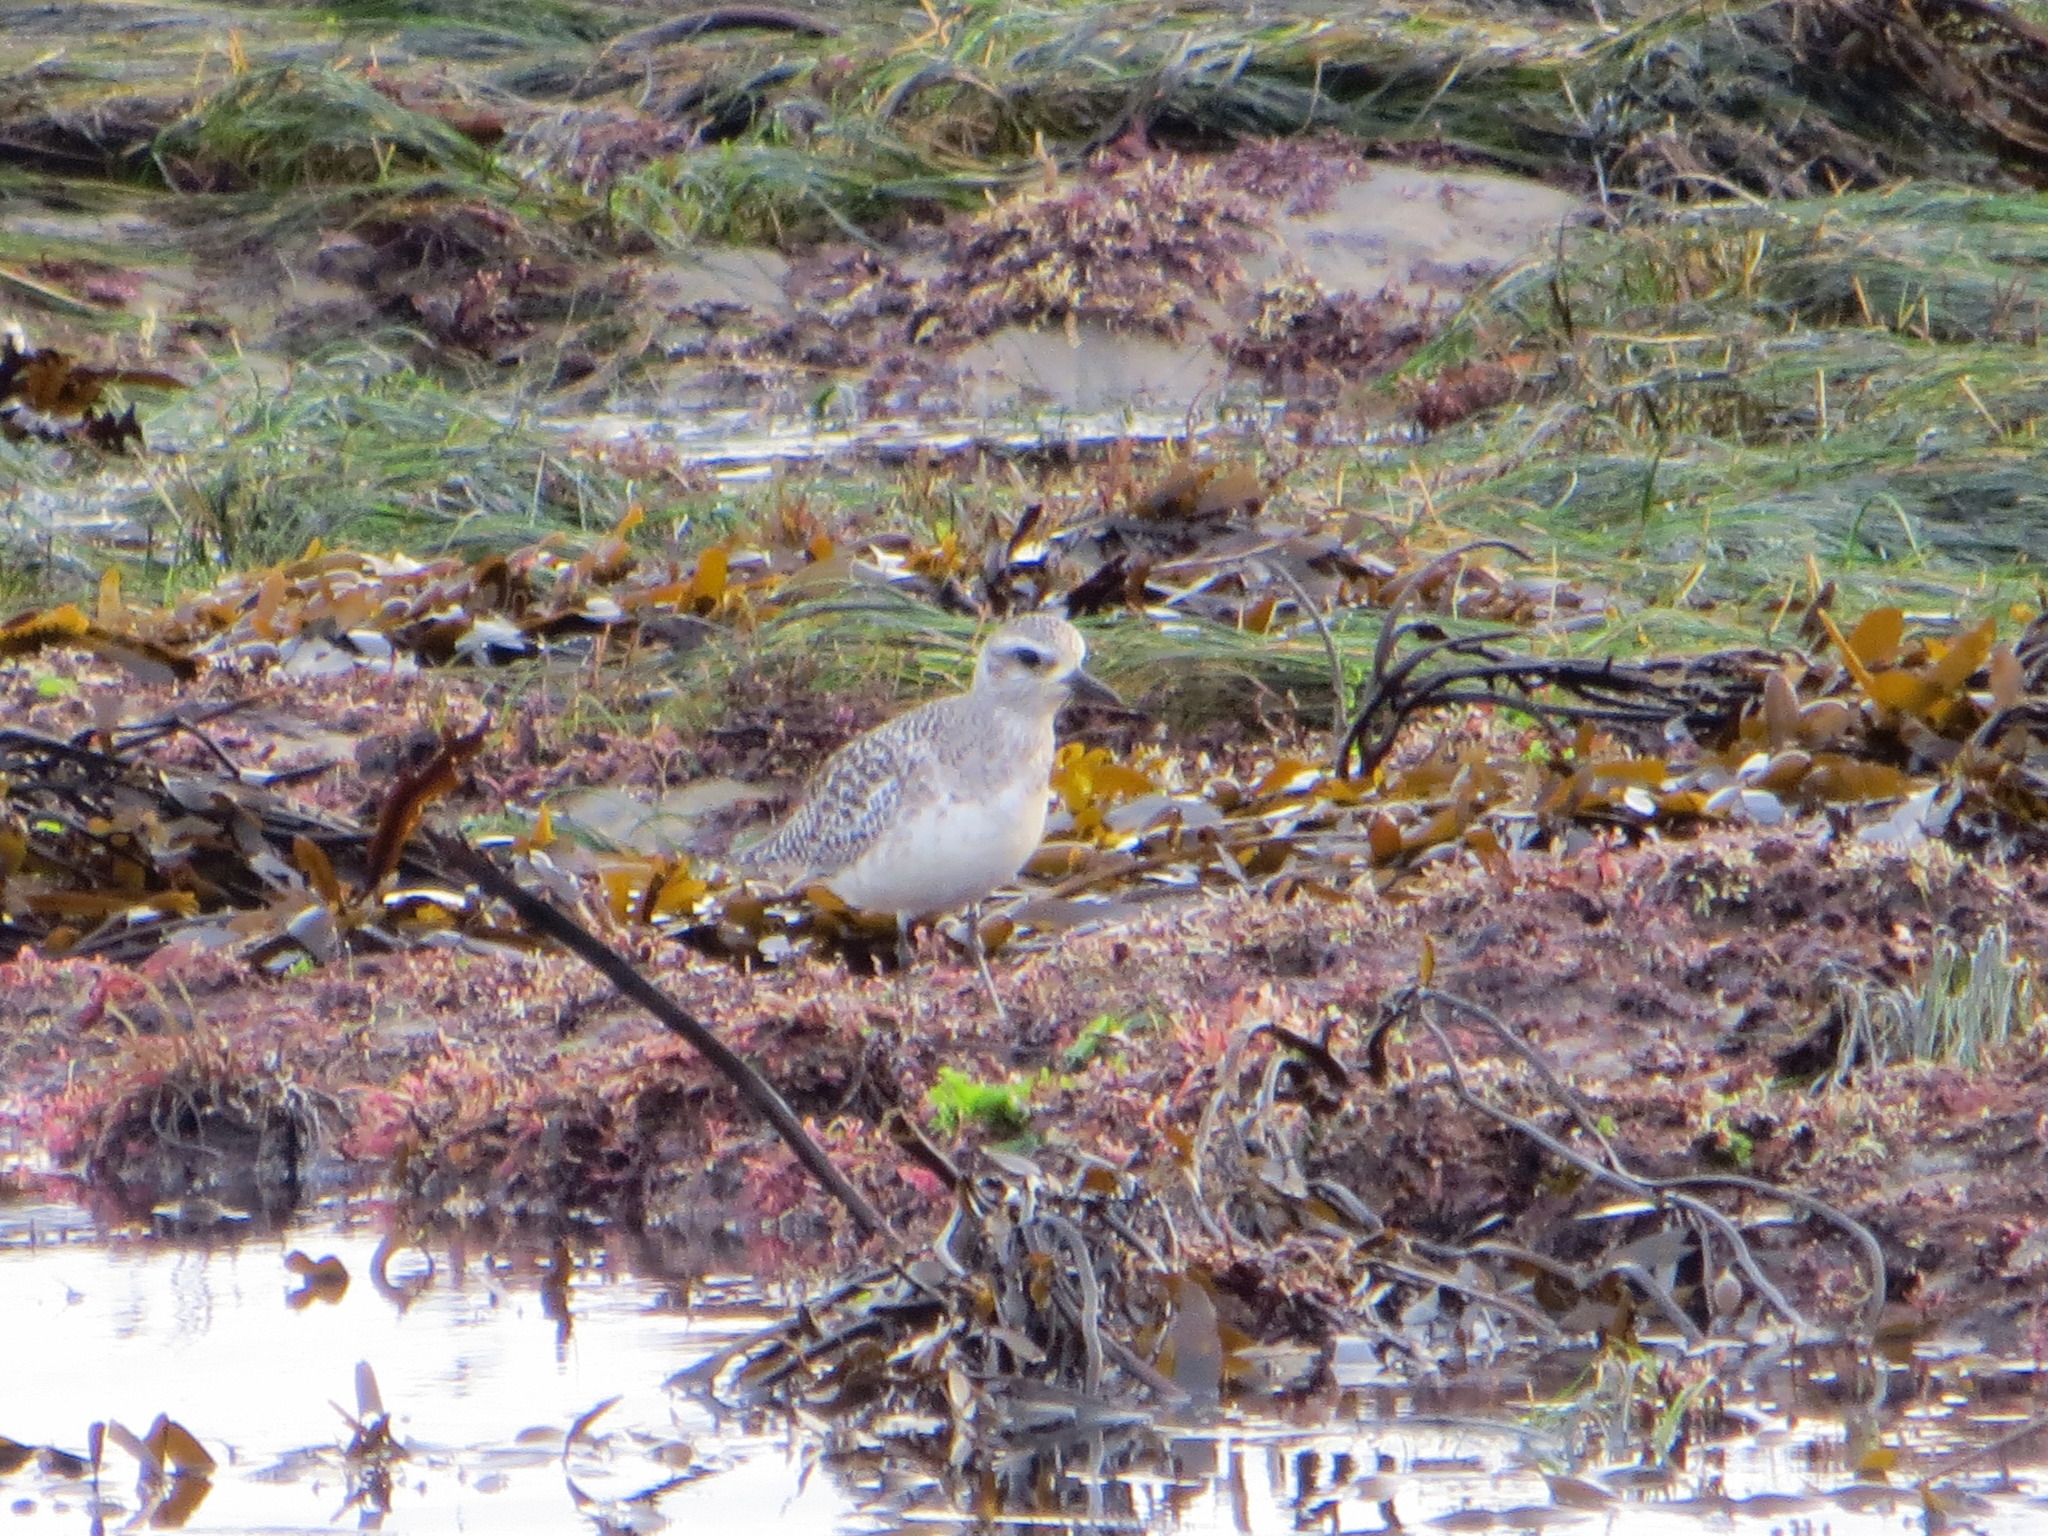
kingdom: Animalia
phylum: Chordata
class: Aves
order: Charadriiformes
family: Charadriidae
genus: Pluvialis
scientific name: Pluvialis squatarola
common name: Grey plover
